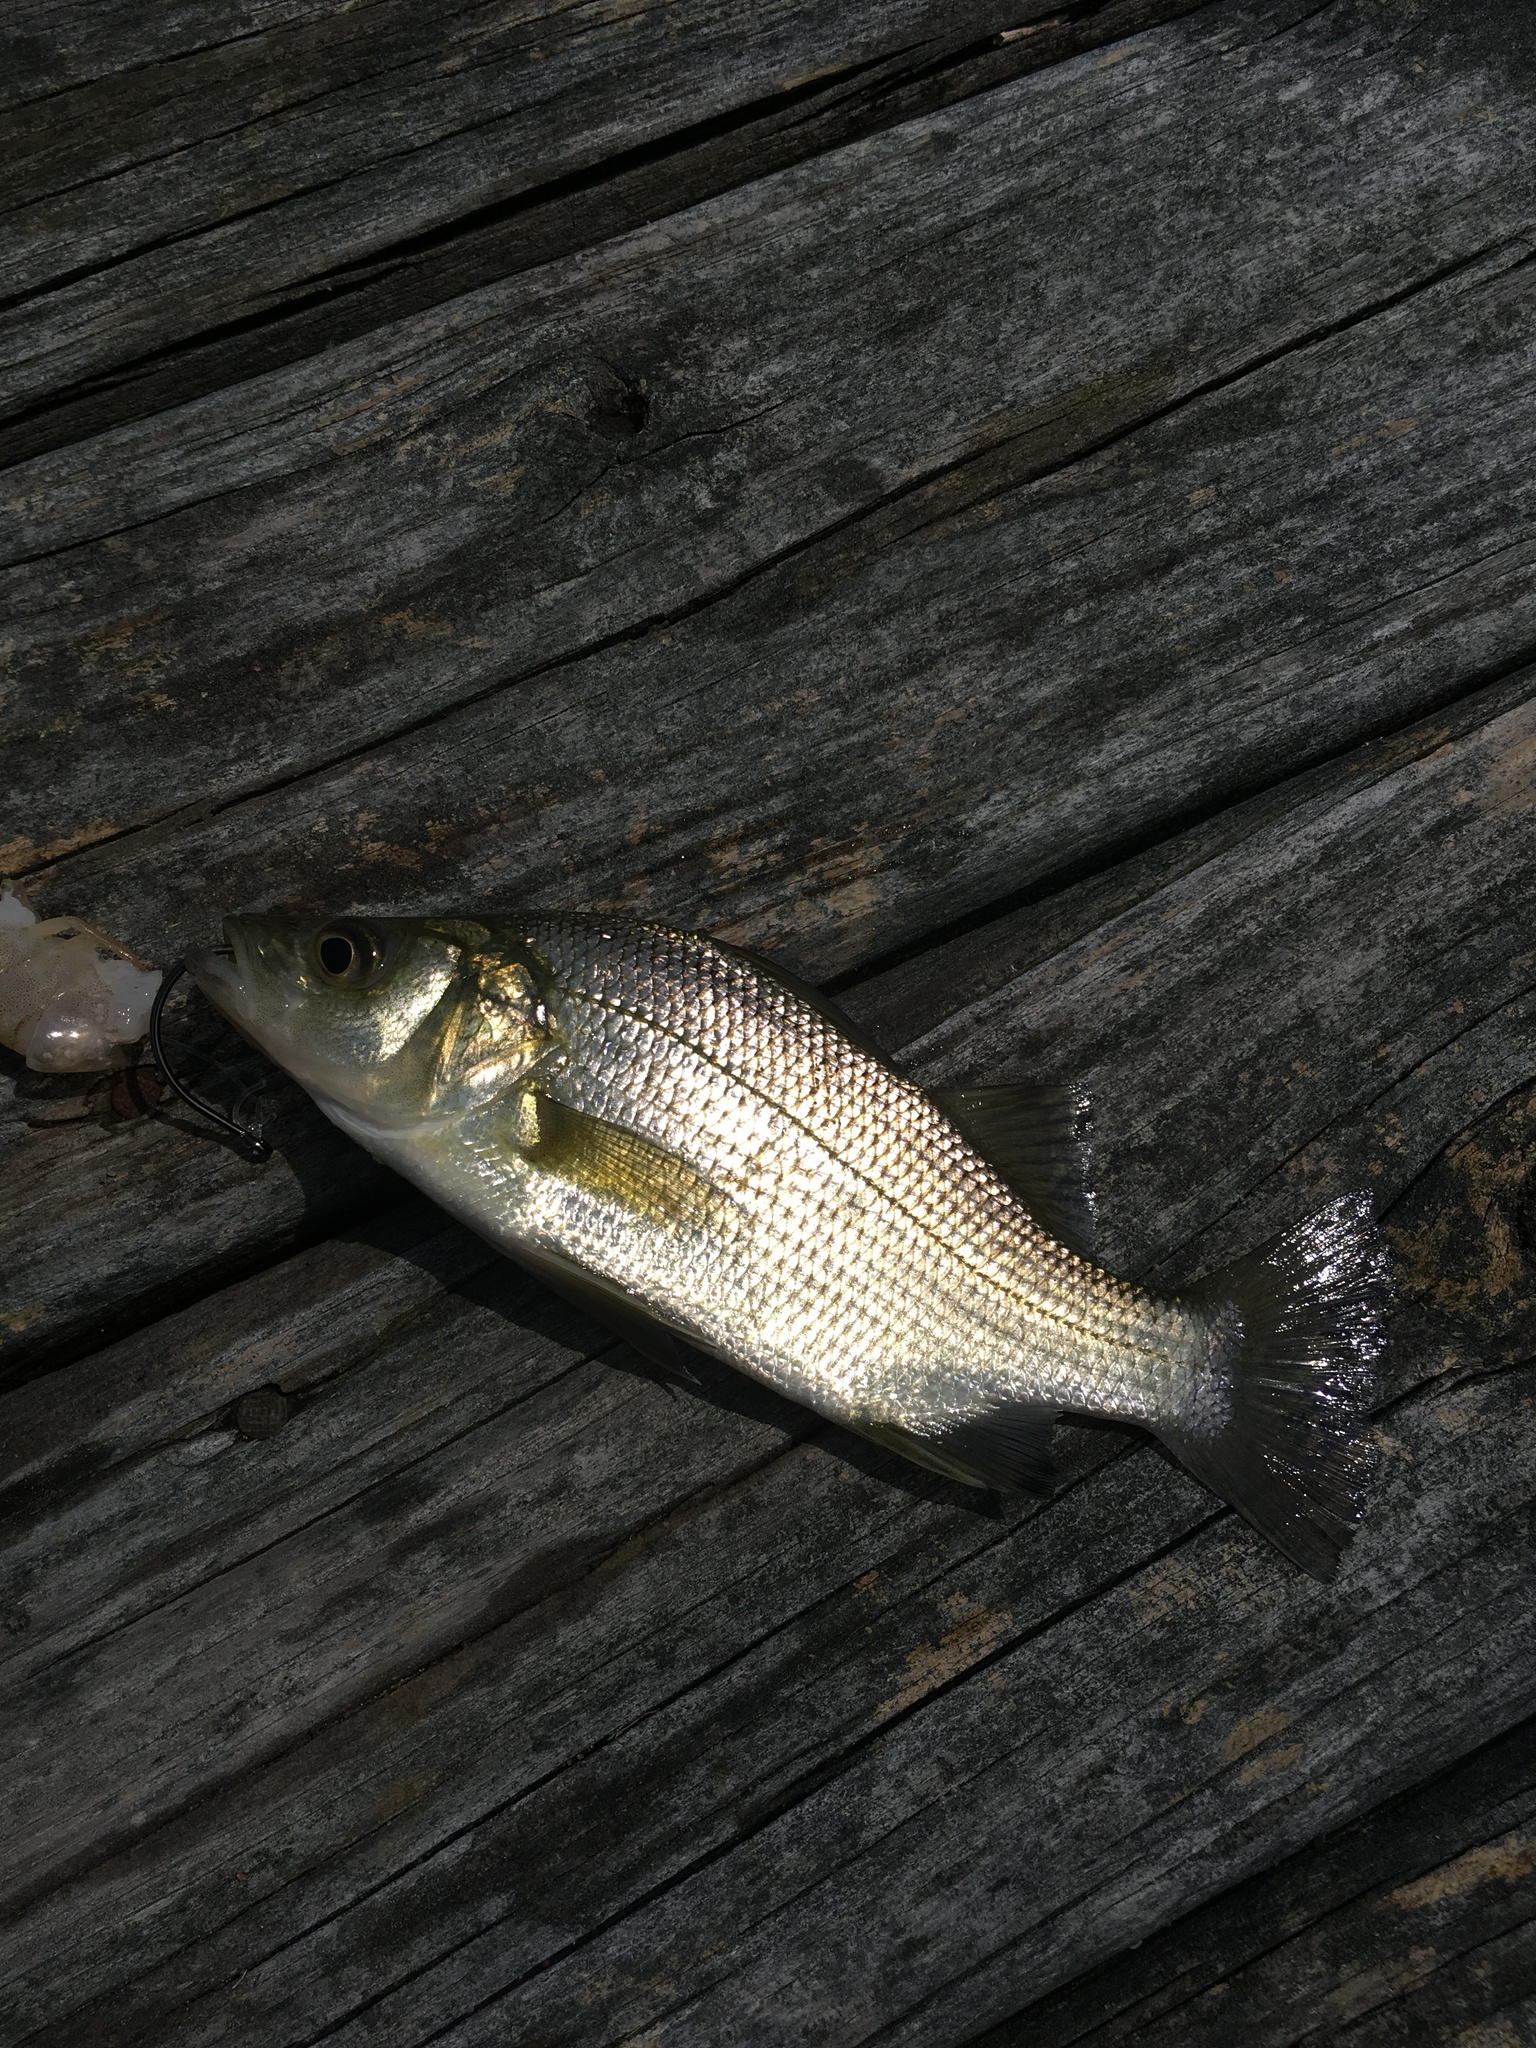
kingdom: Animalia
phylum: Chordata
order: Perciformes
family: Moronidae
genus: Morone
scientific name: Morone americana
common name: White perch
